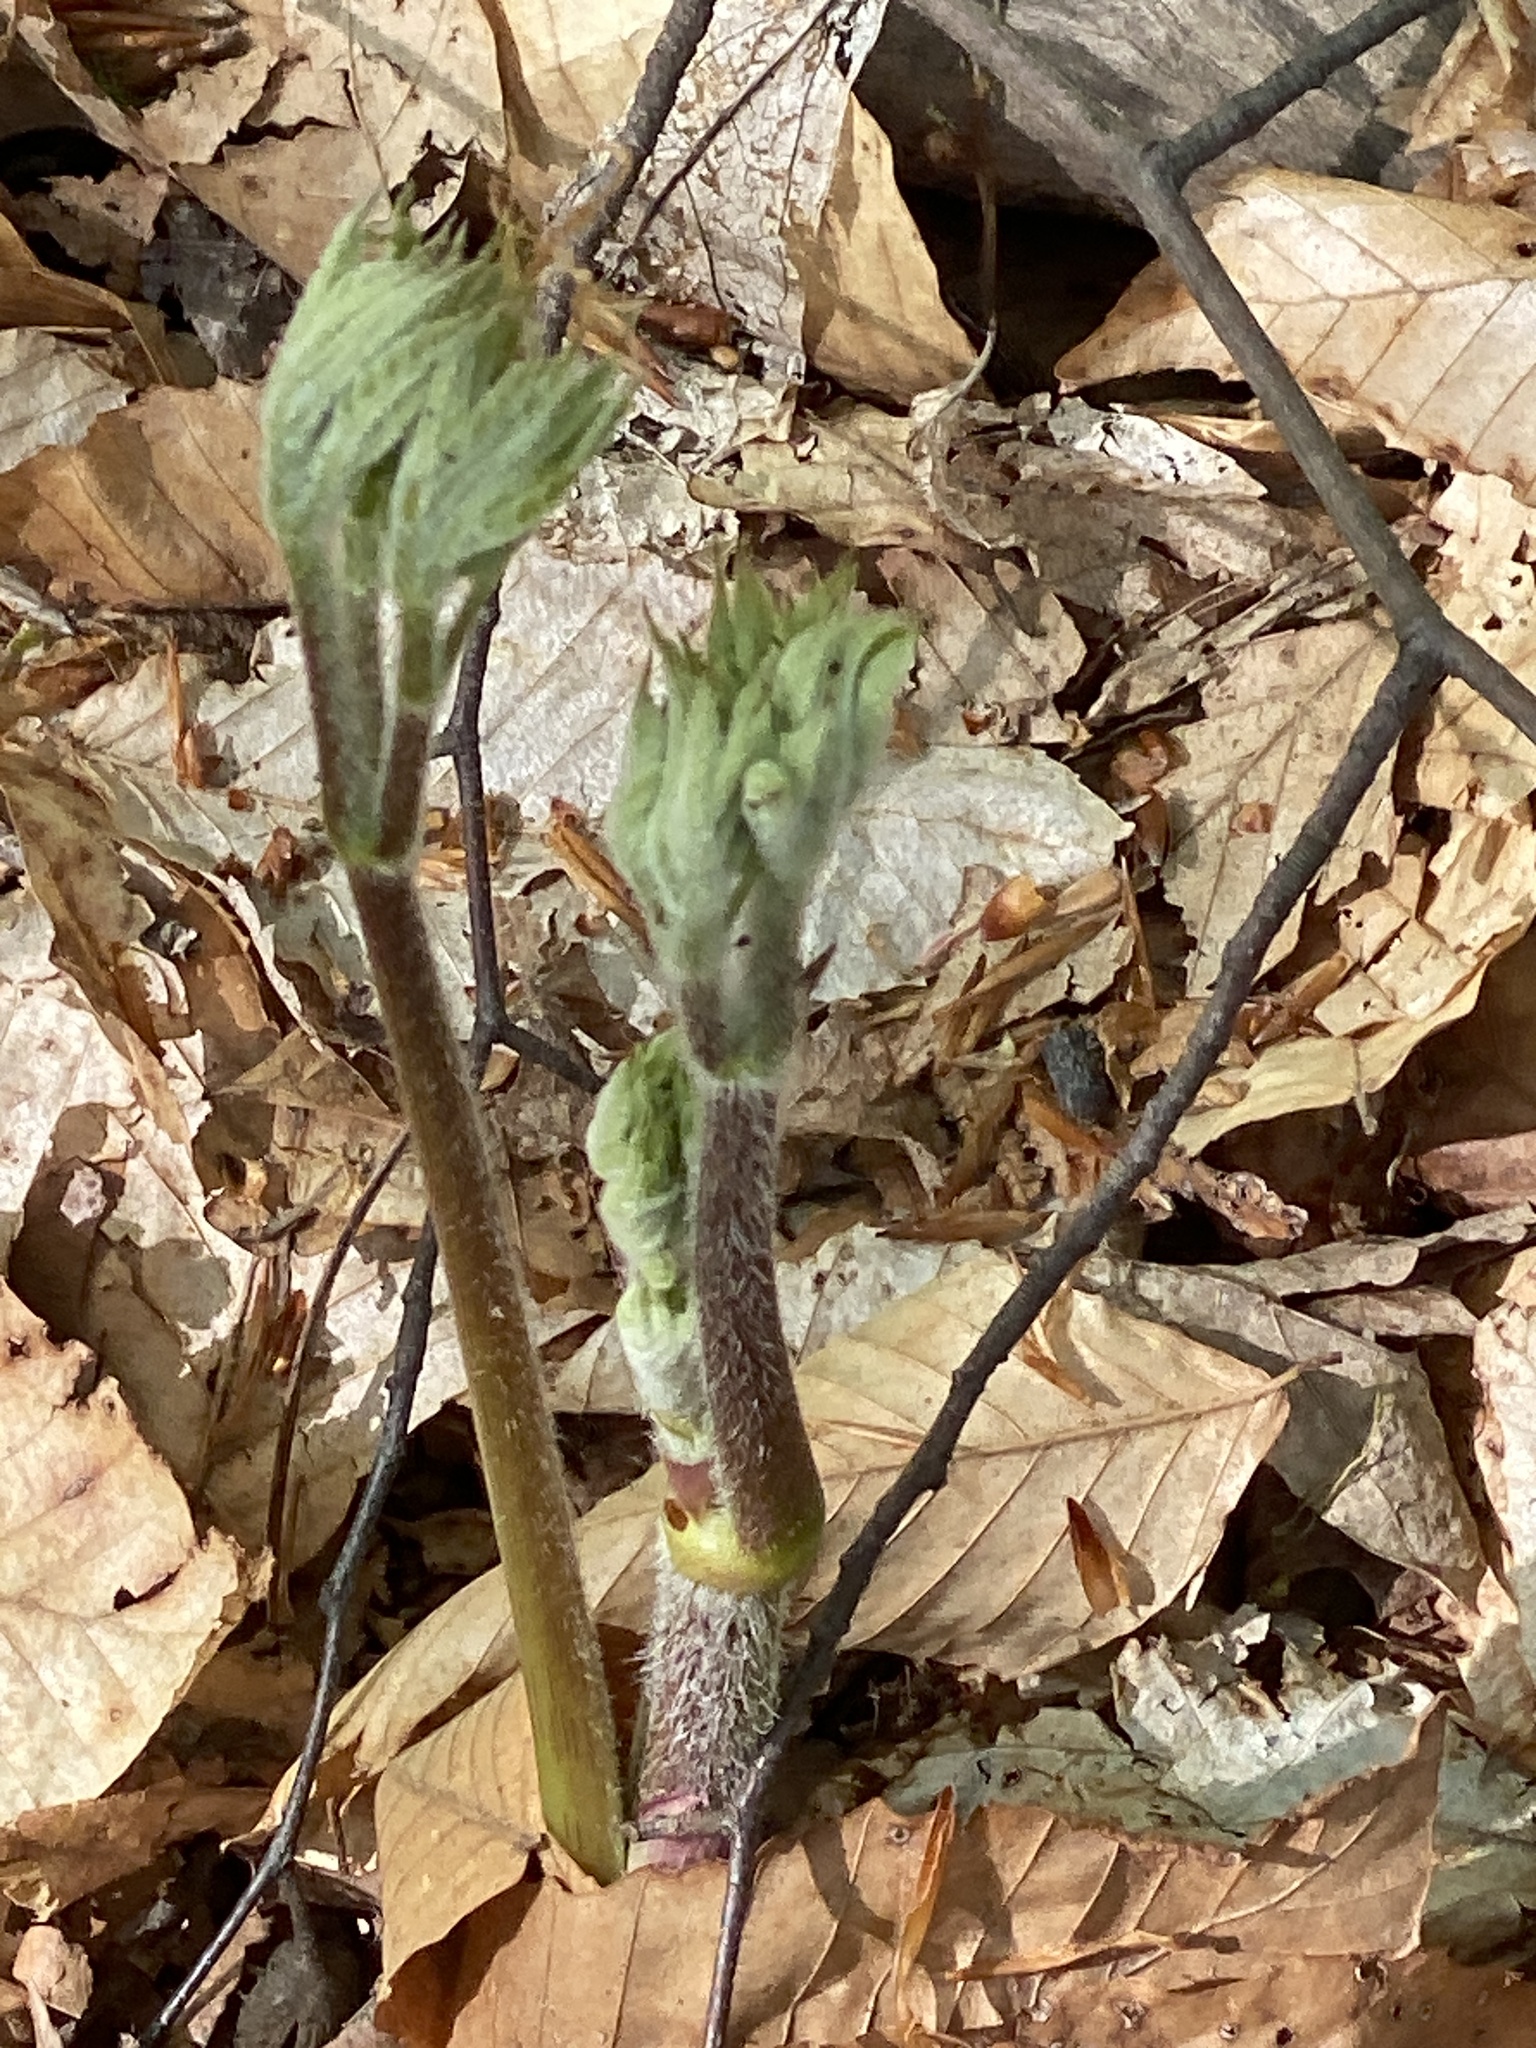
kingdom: Plantae
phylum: Tracheophyta
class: Magnoliopsida
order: Apiales
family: Araliaceae
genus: Aralia
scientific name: Aralia racemosa
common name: American-spikenard
